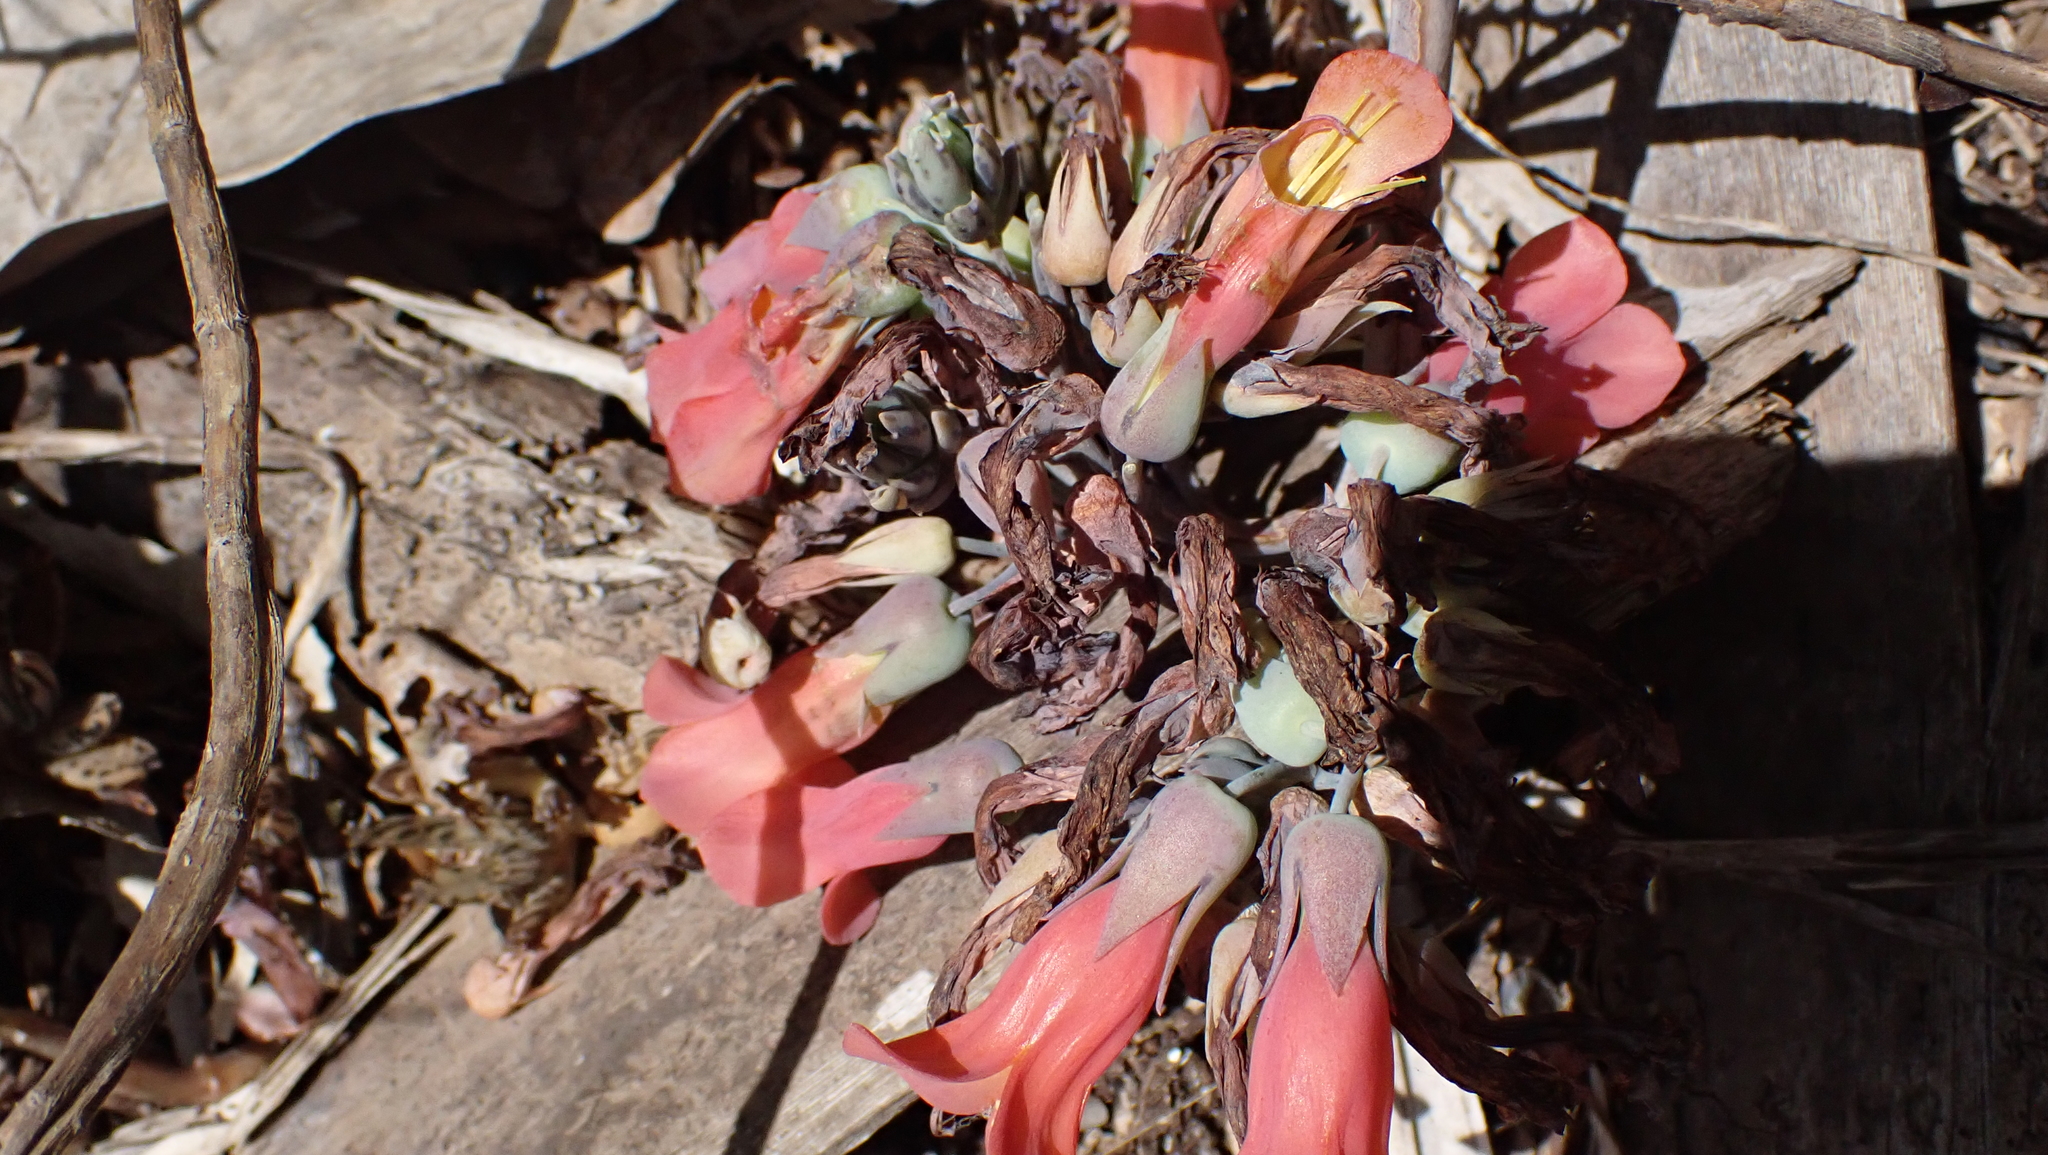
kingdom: Plantae
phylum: Tracheophyta
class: Magnoliopsida
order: Saxifragales
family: Crassulaceae
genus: Kalanchoe
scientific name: Kalanchoe delagoensis
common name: Chandelier plant
